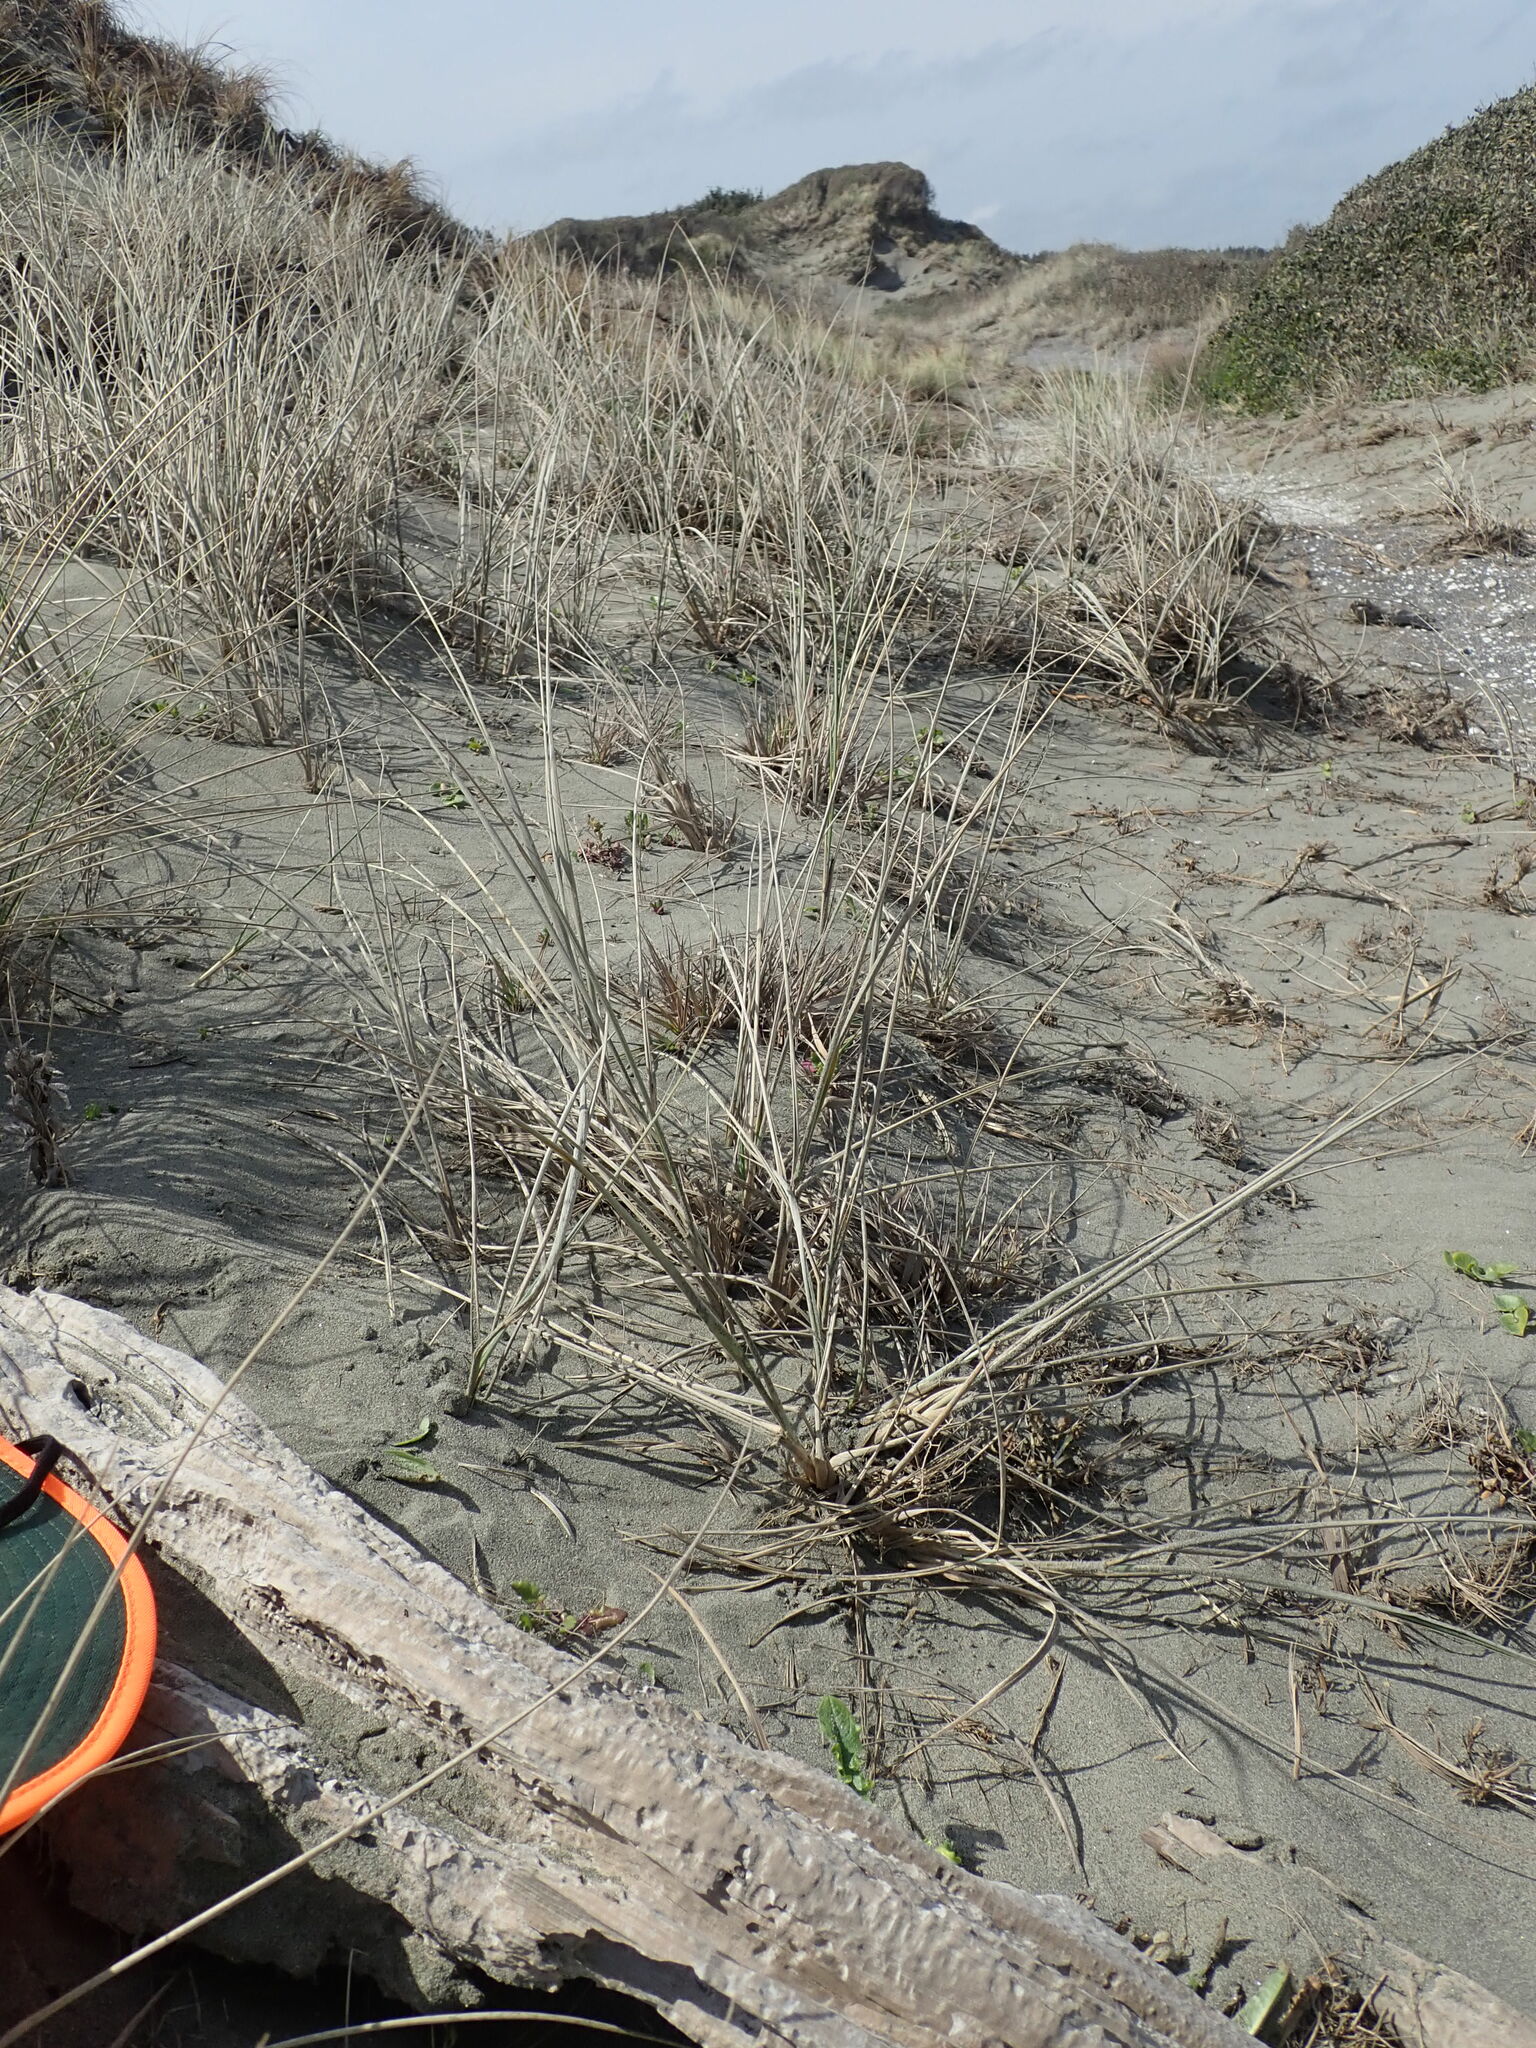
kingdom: Animalia
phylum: Arthropoda
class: Arachnida
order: Araneae
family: Dysderidae
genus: Dysdera
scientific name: Dysdera crocata
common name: Woodlouse spider
